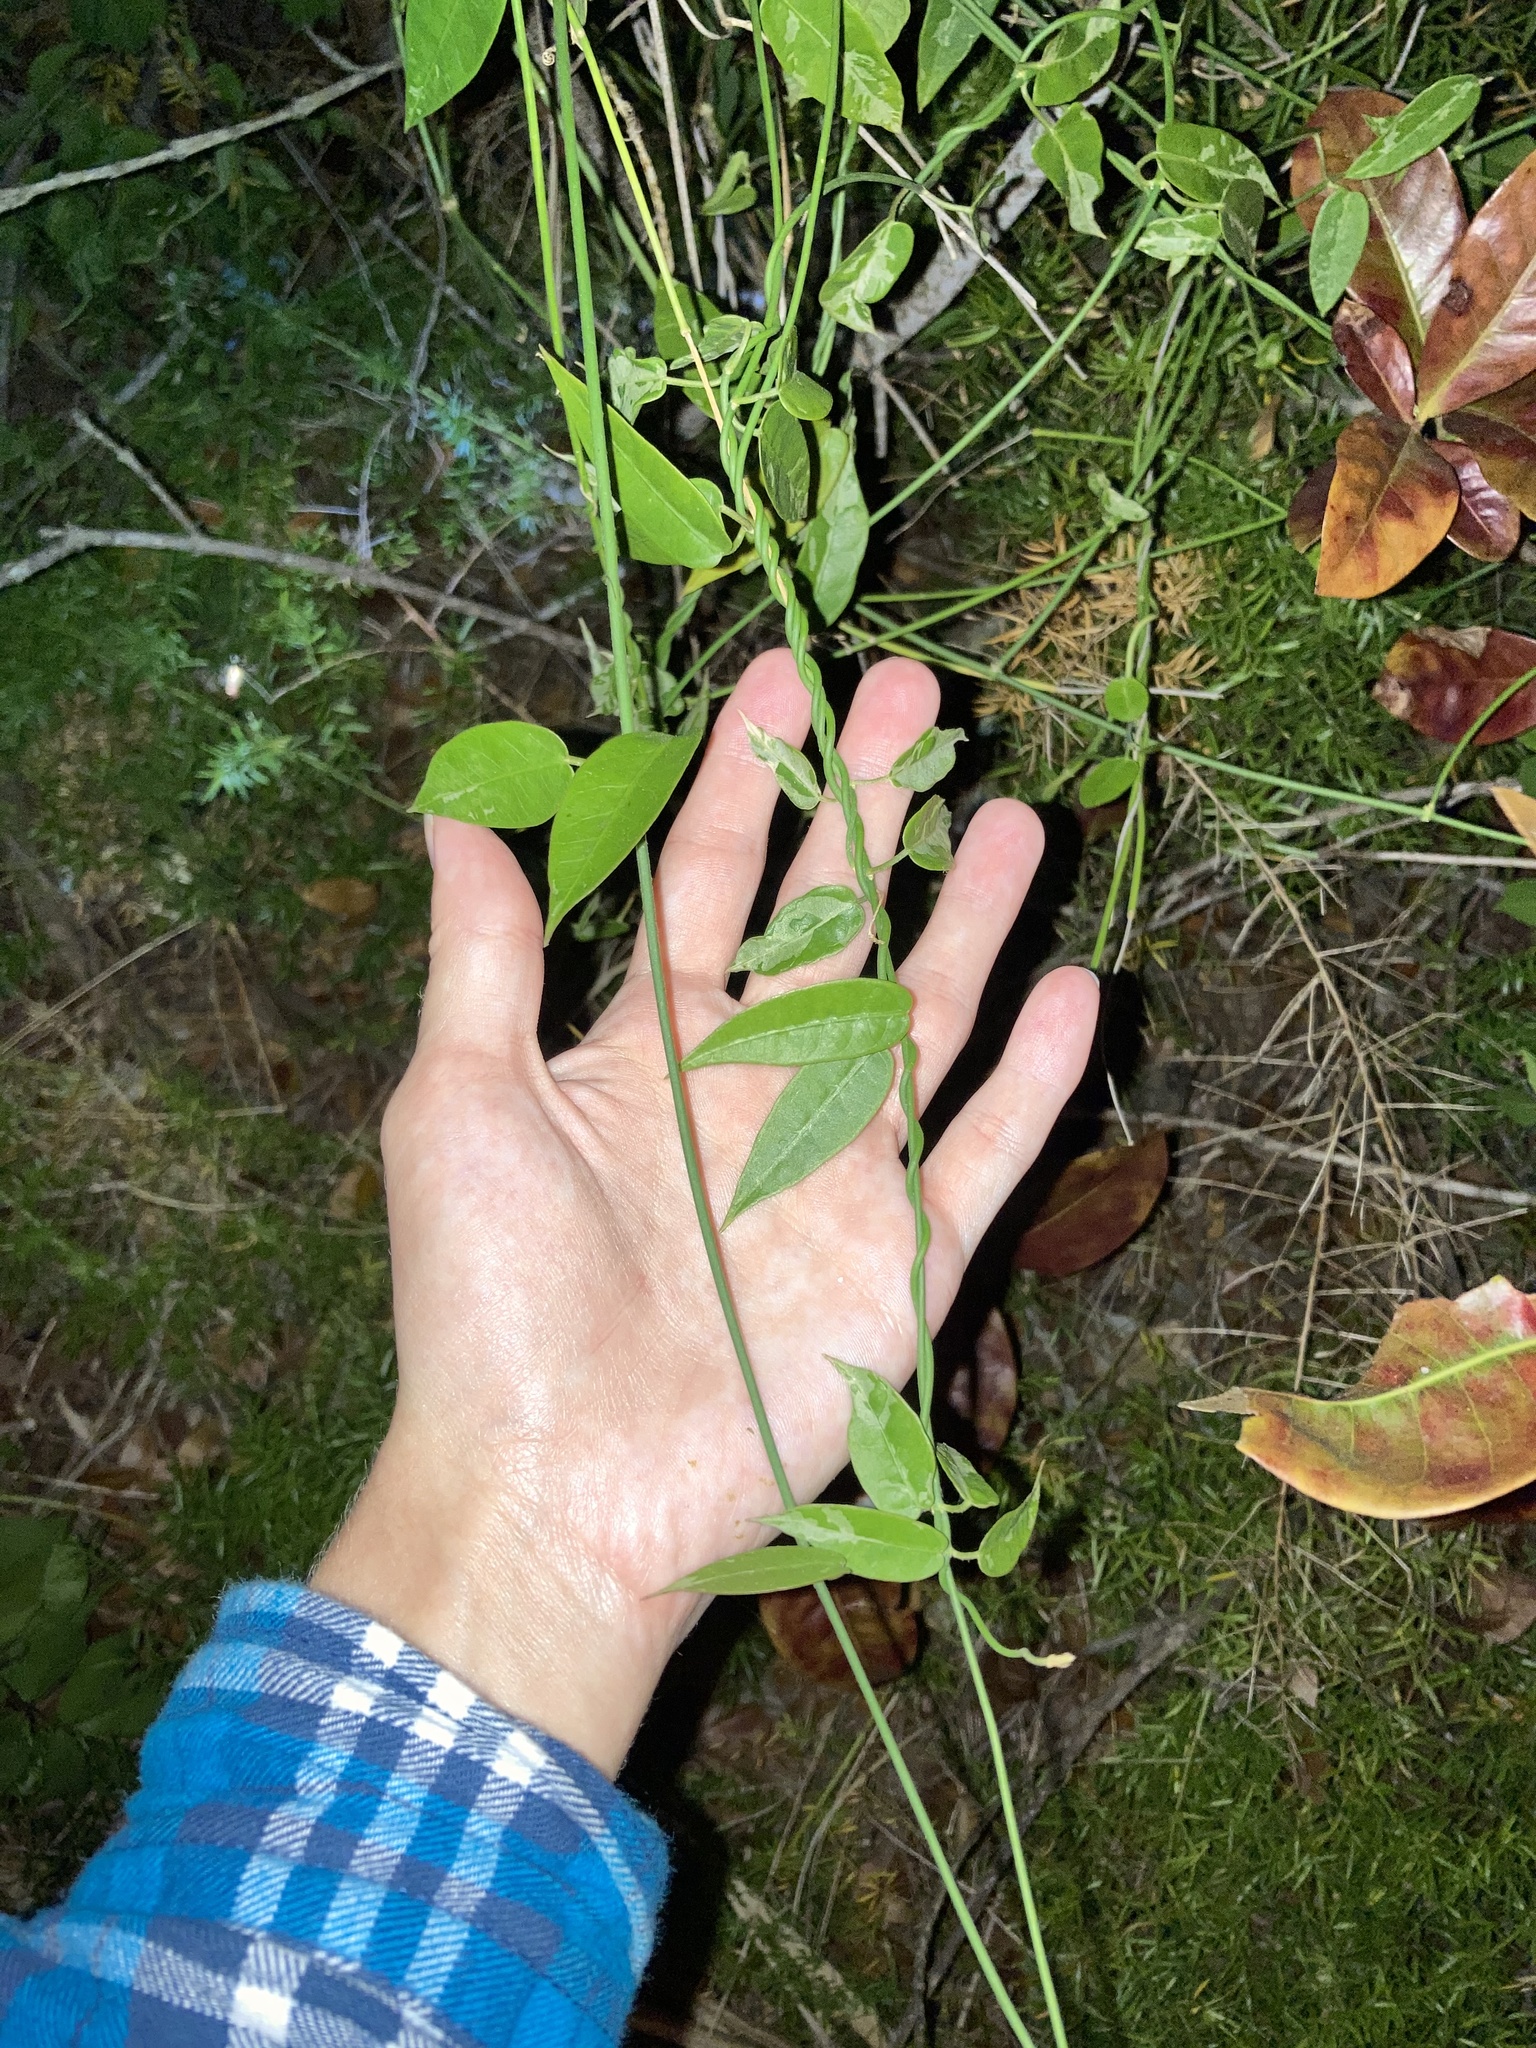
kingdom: Plantae
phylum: Tracheophyta
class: Magnoliopsida
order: Gentianales
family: Apocynaceae
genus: Funastrum
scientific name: Funastrum clausum
